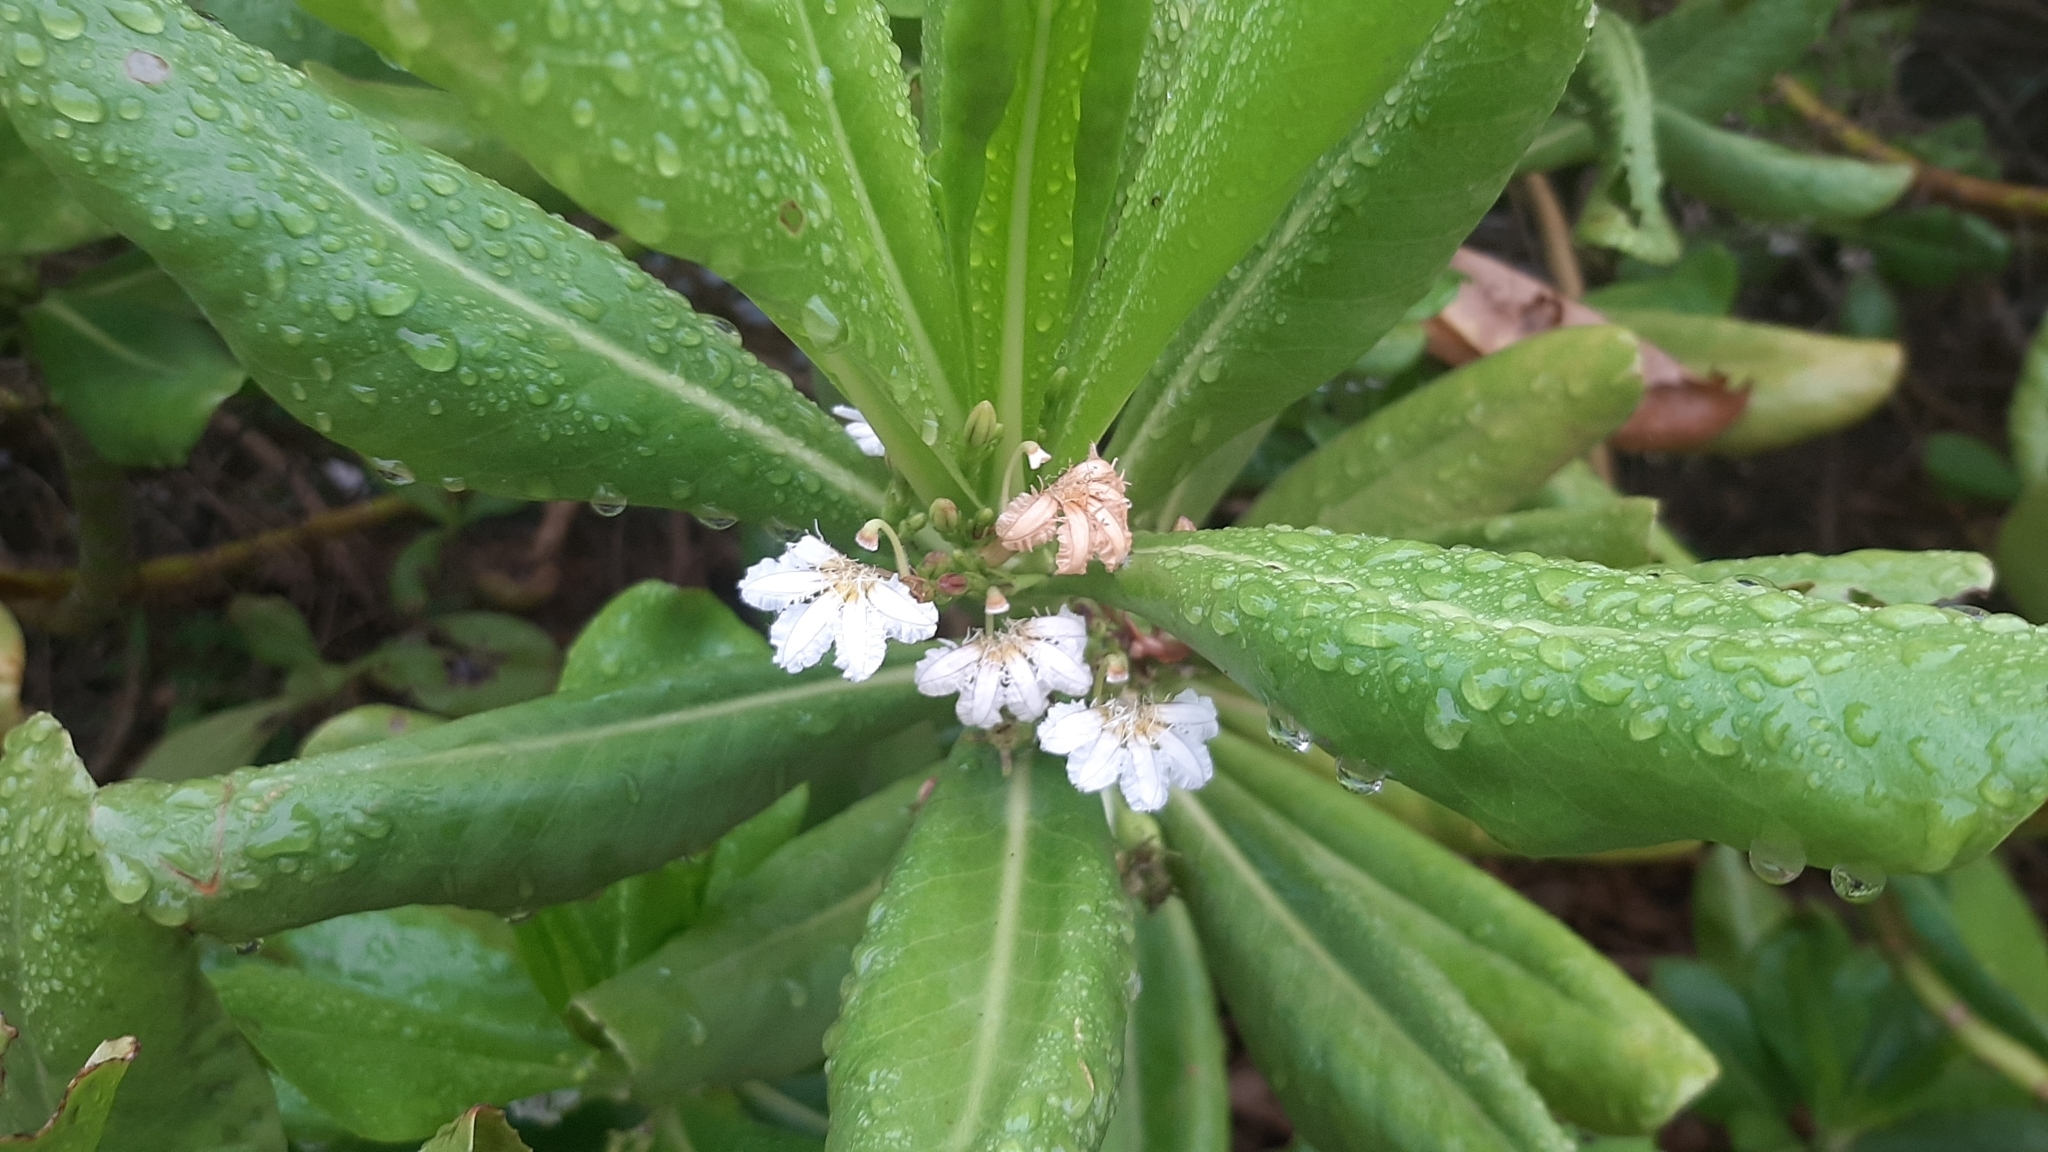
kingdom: Plantae
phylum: Tracheophyta
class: Magnoliopsida
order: Asterales
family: Goodeniaceae
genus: Scaevola
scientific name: Scaevola taccada
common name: Sea lettucetree
